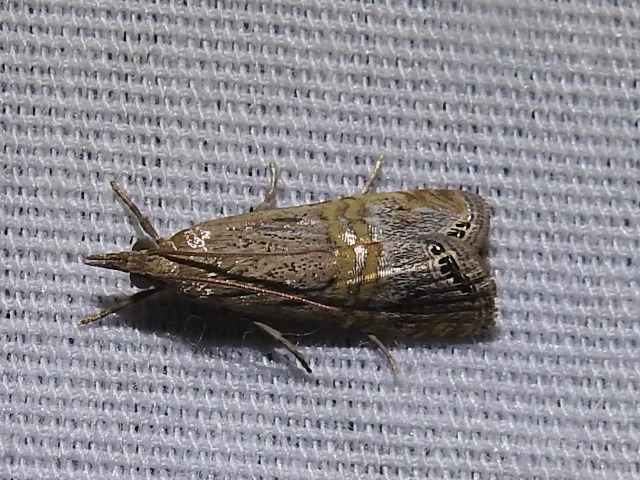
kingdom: Animalia
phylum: Arthropoda
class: Insecta
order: Lepidoptera
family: Crambidae
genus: Euchromius
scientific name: Euchromius ocellea
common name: Necklace veneer moth
